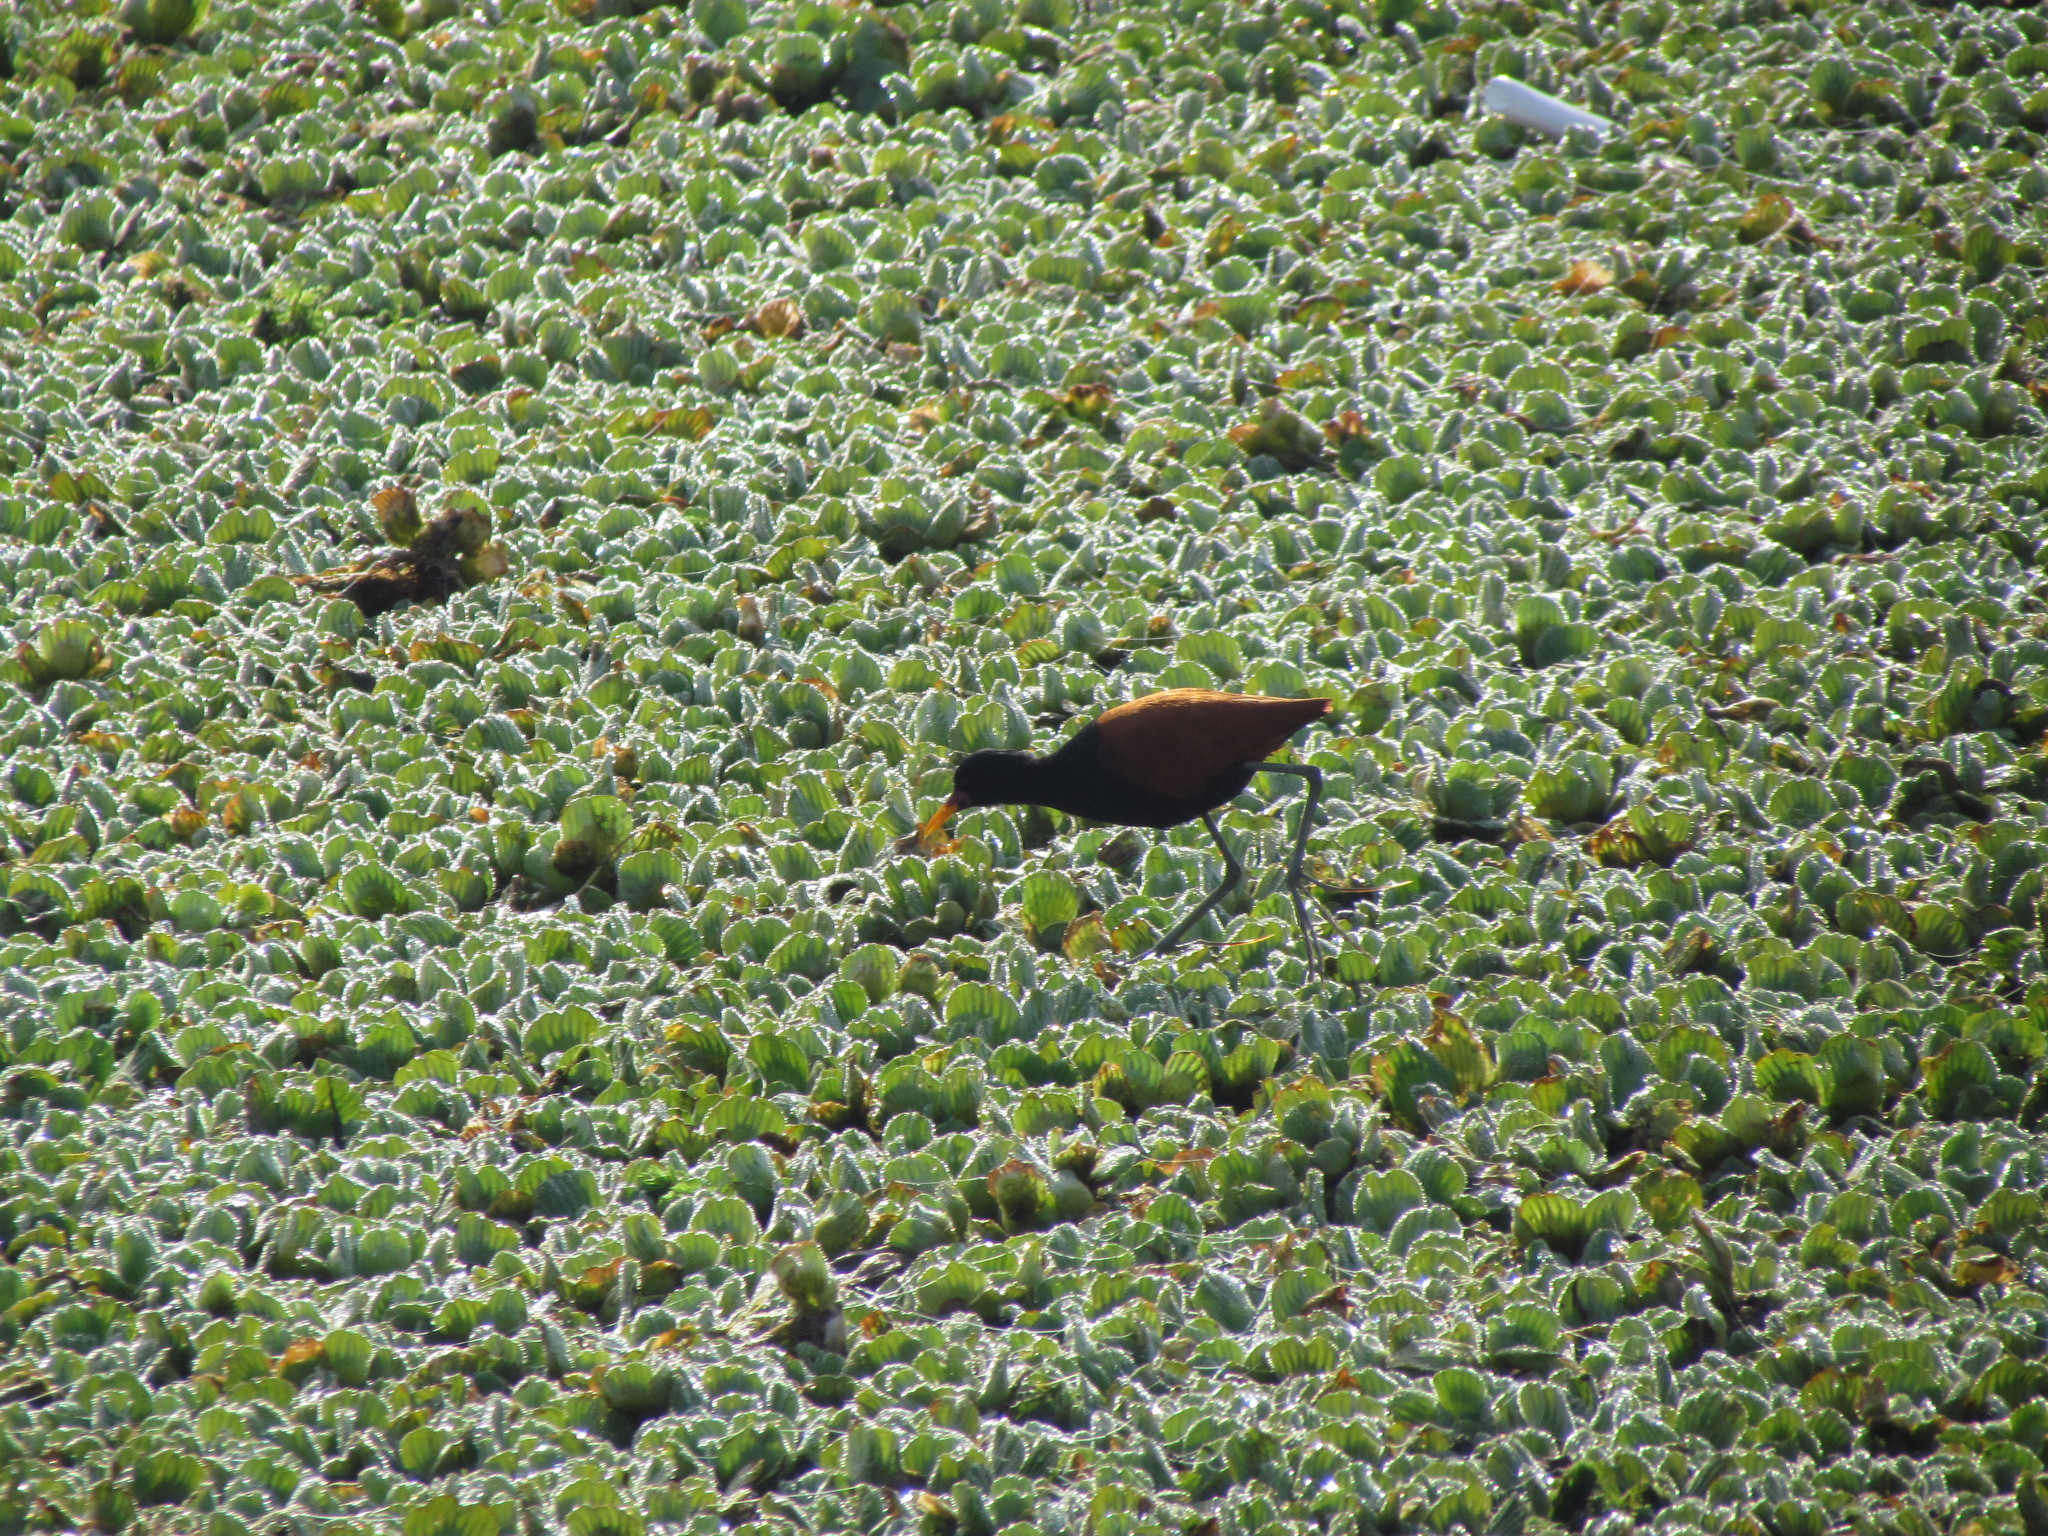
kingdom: Animalia
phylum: Chordata
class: Aves
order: Charadriiformes
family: Jacanidae
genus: Jacana
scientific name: Jacana jacana
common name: Wattled jacana
